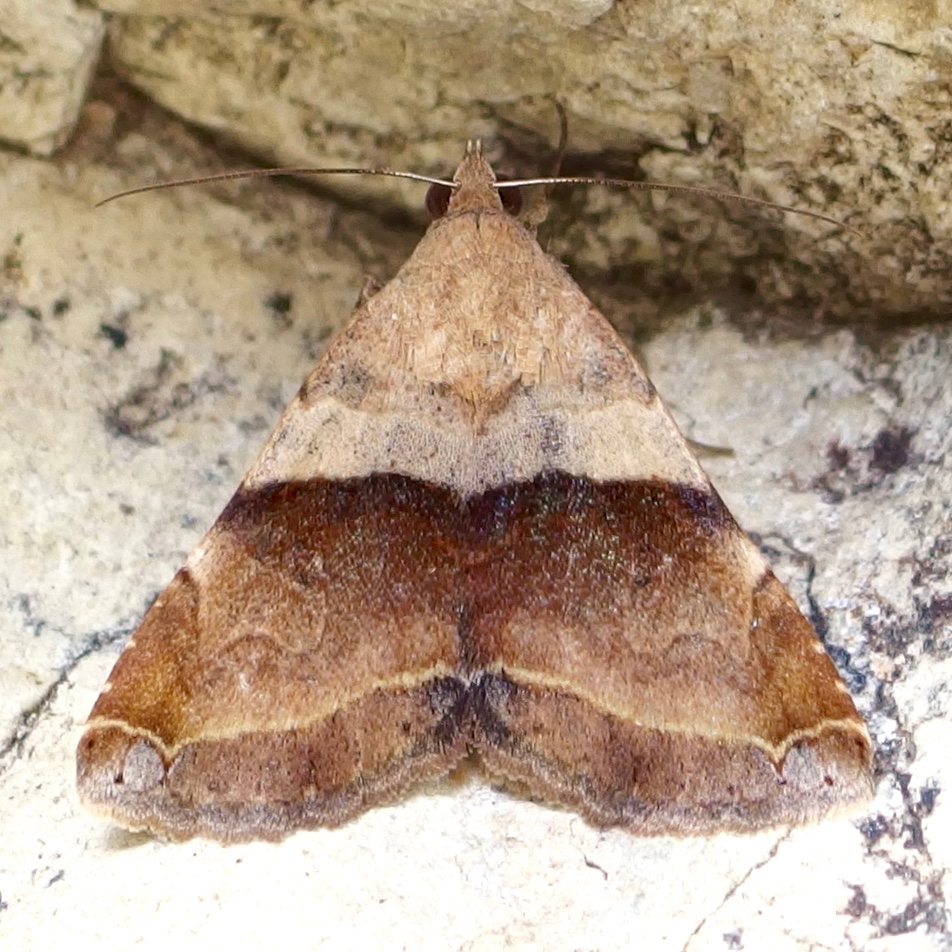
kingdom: Animalia
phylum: Arthropoda
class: Insecta
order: Lepidoptera
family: Erebidae
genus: Panula
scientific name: Panula inconstans
